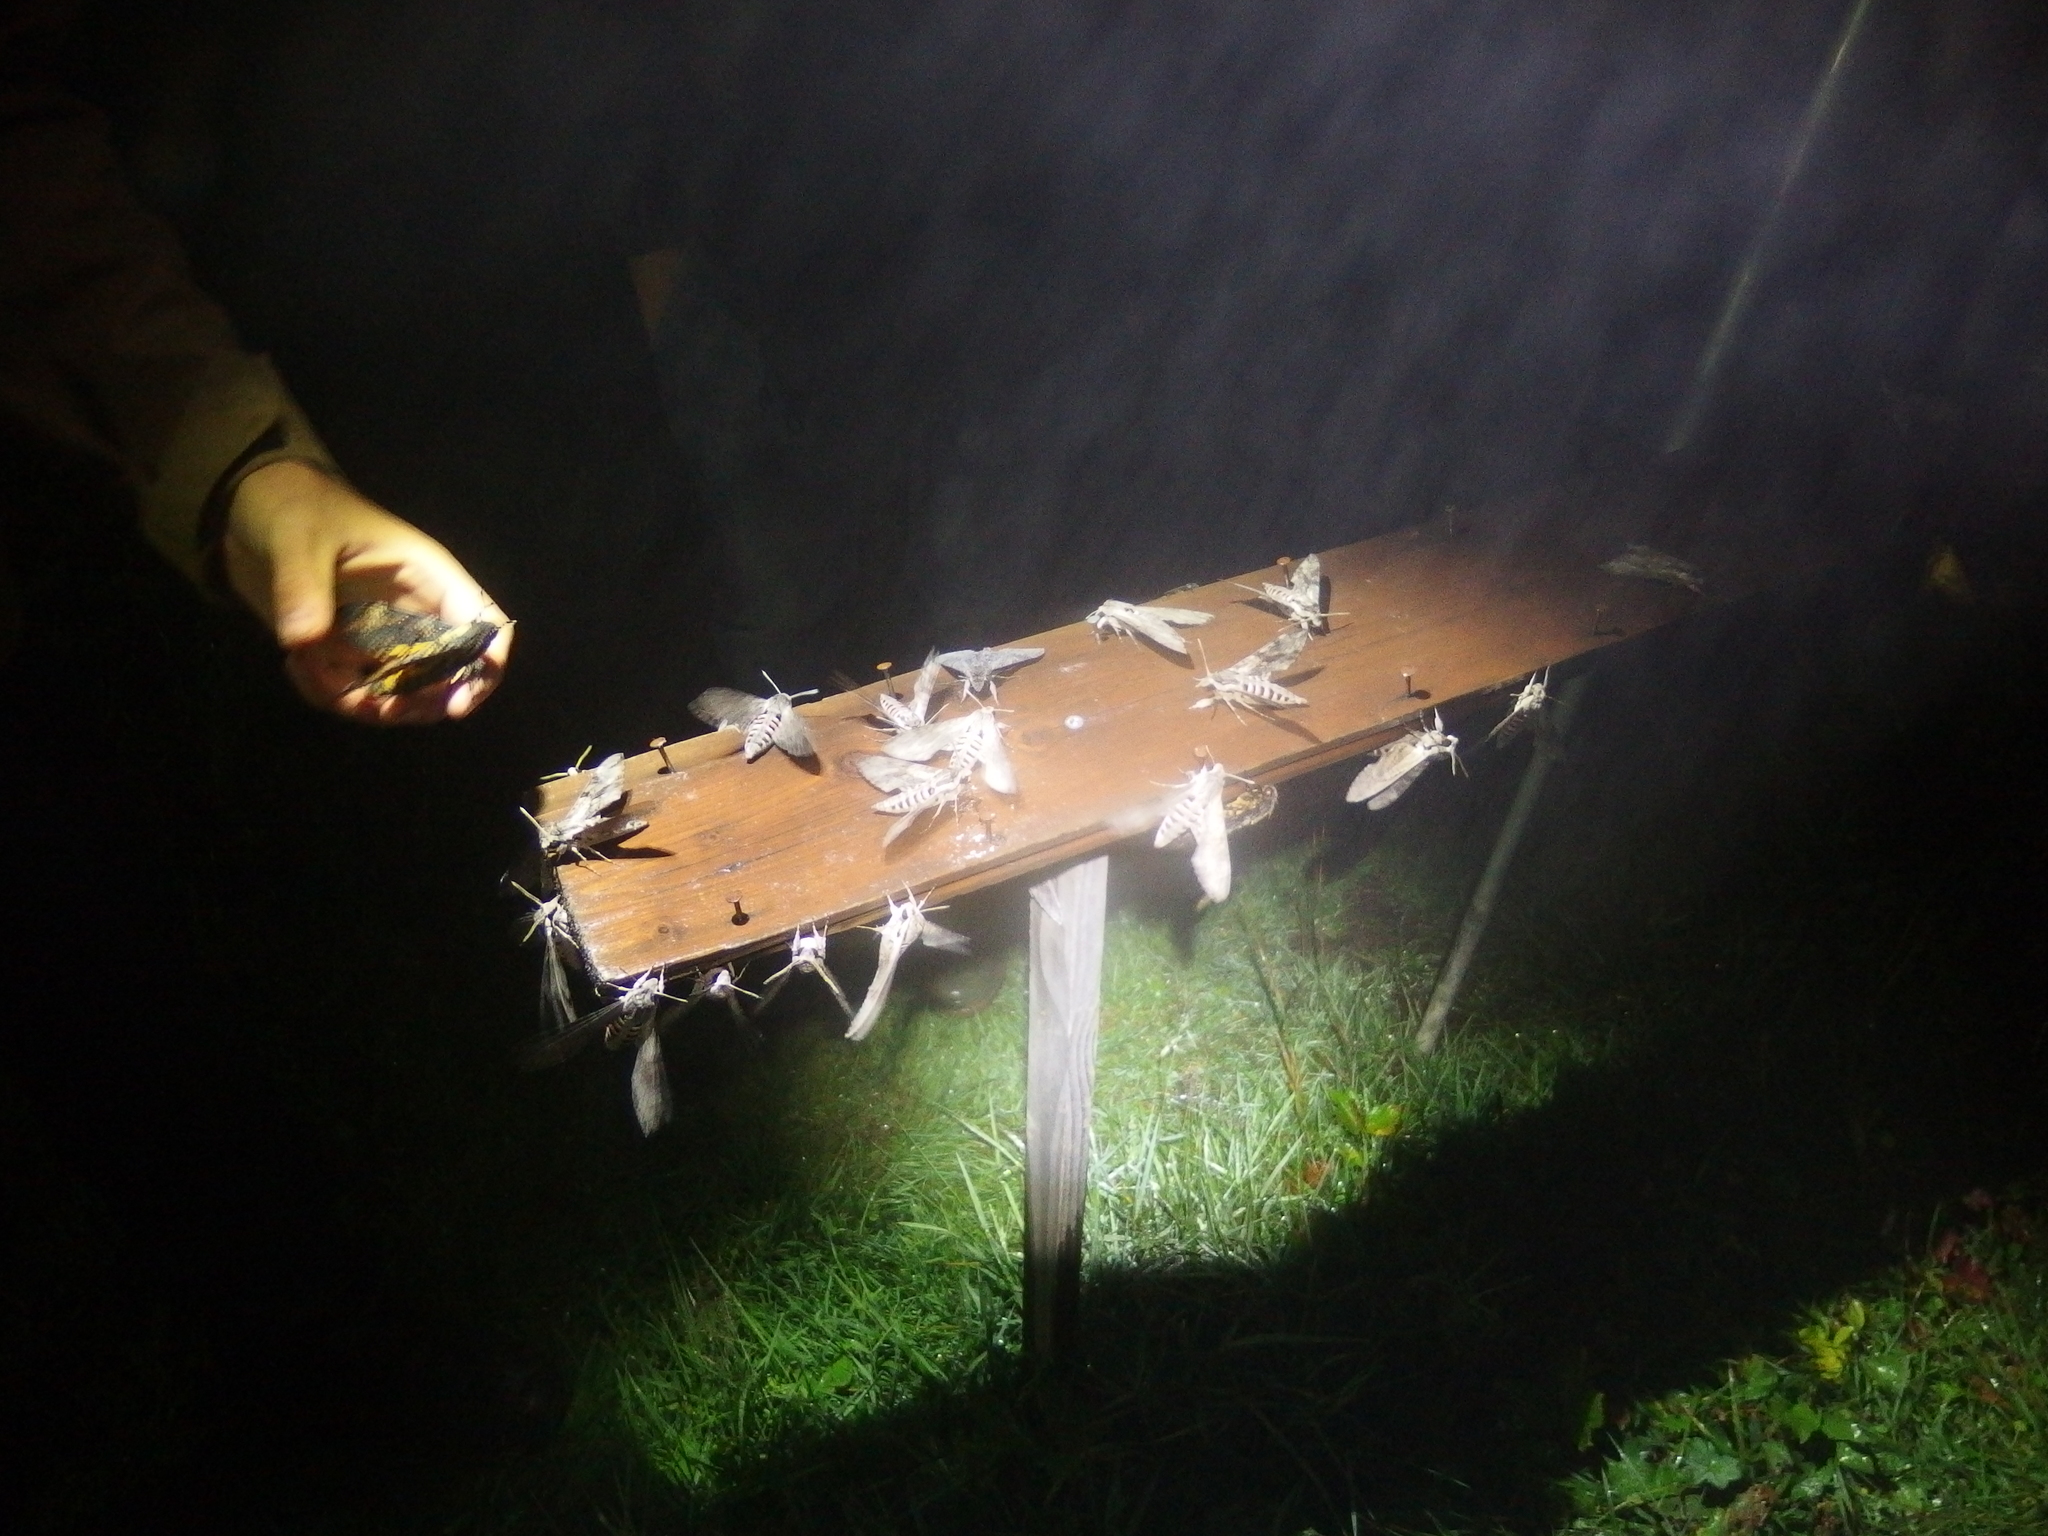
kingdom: Animalia
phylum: Arthropoda
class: Insecta
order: Lepidoptera
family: Sphingidae
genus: Agrius
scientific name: Agrius convolvuli
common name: Convolvulus hawkmoth
